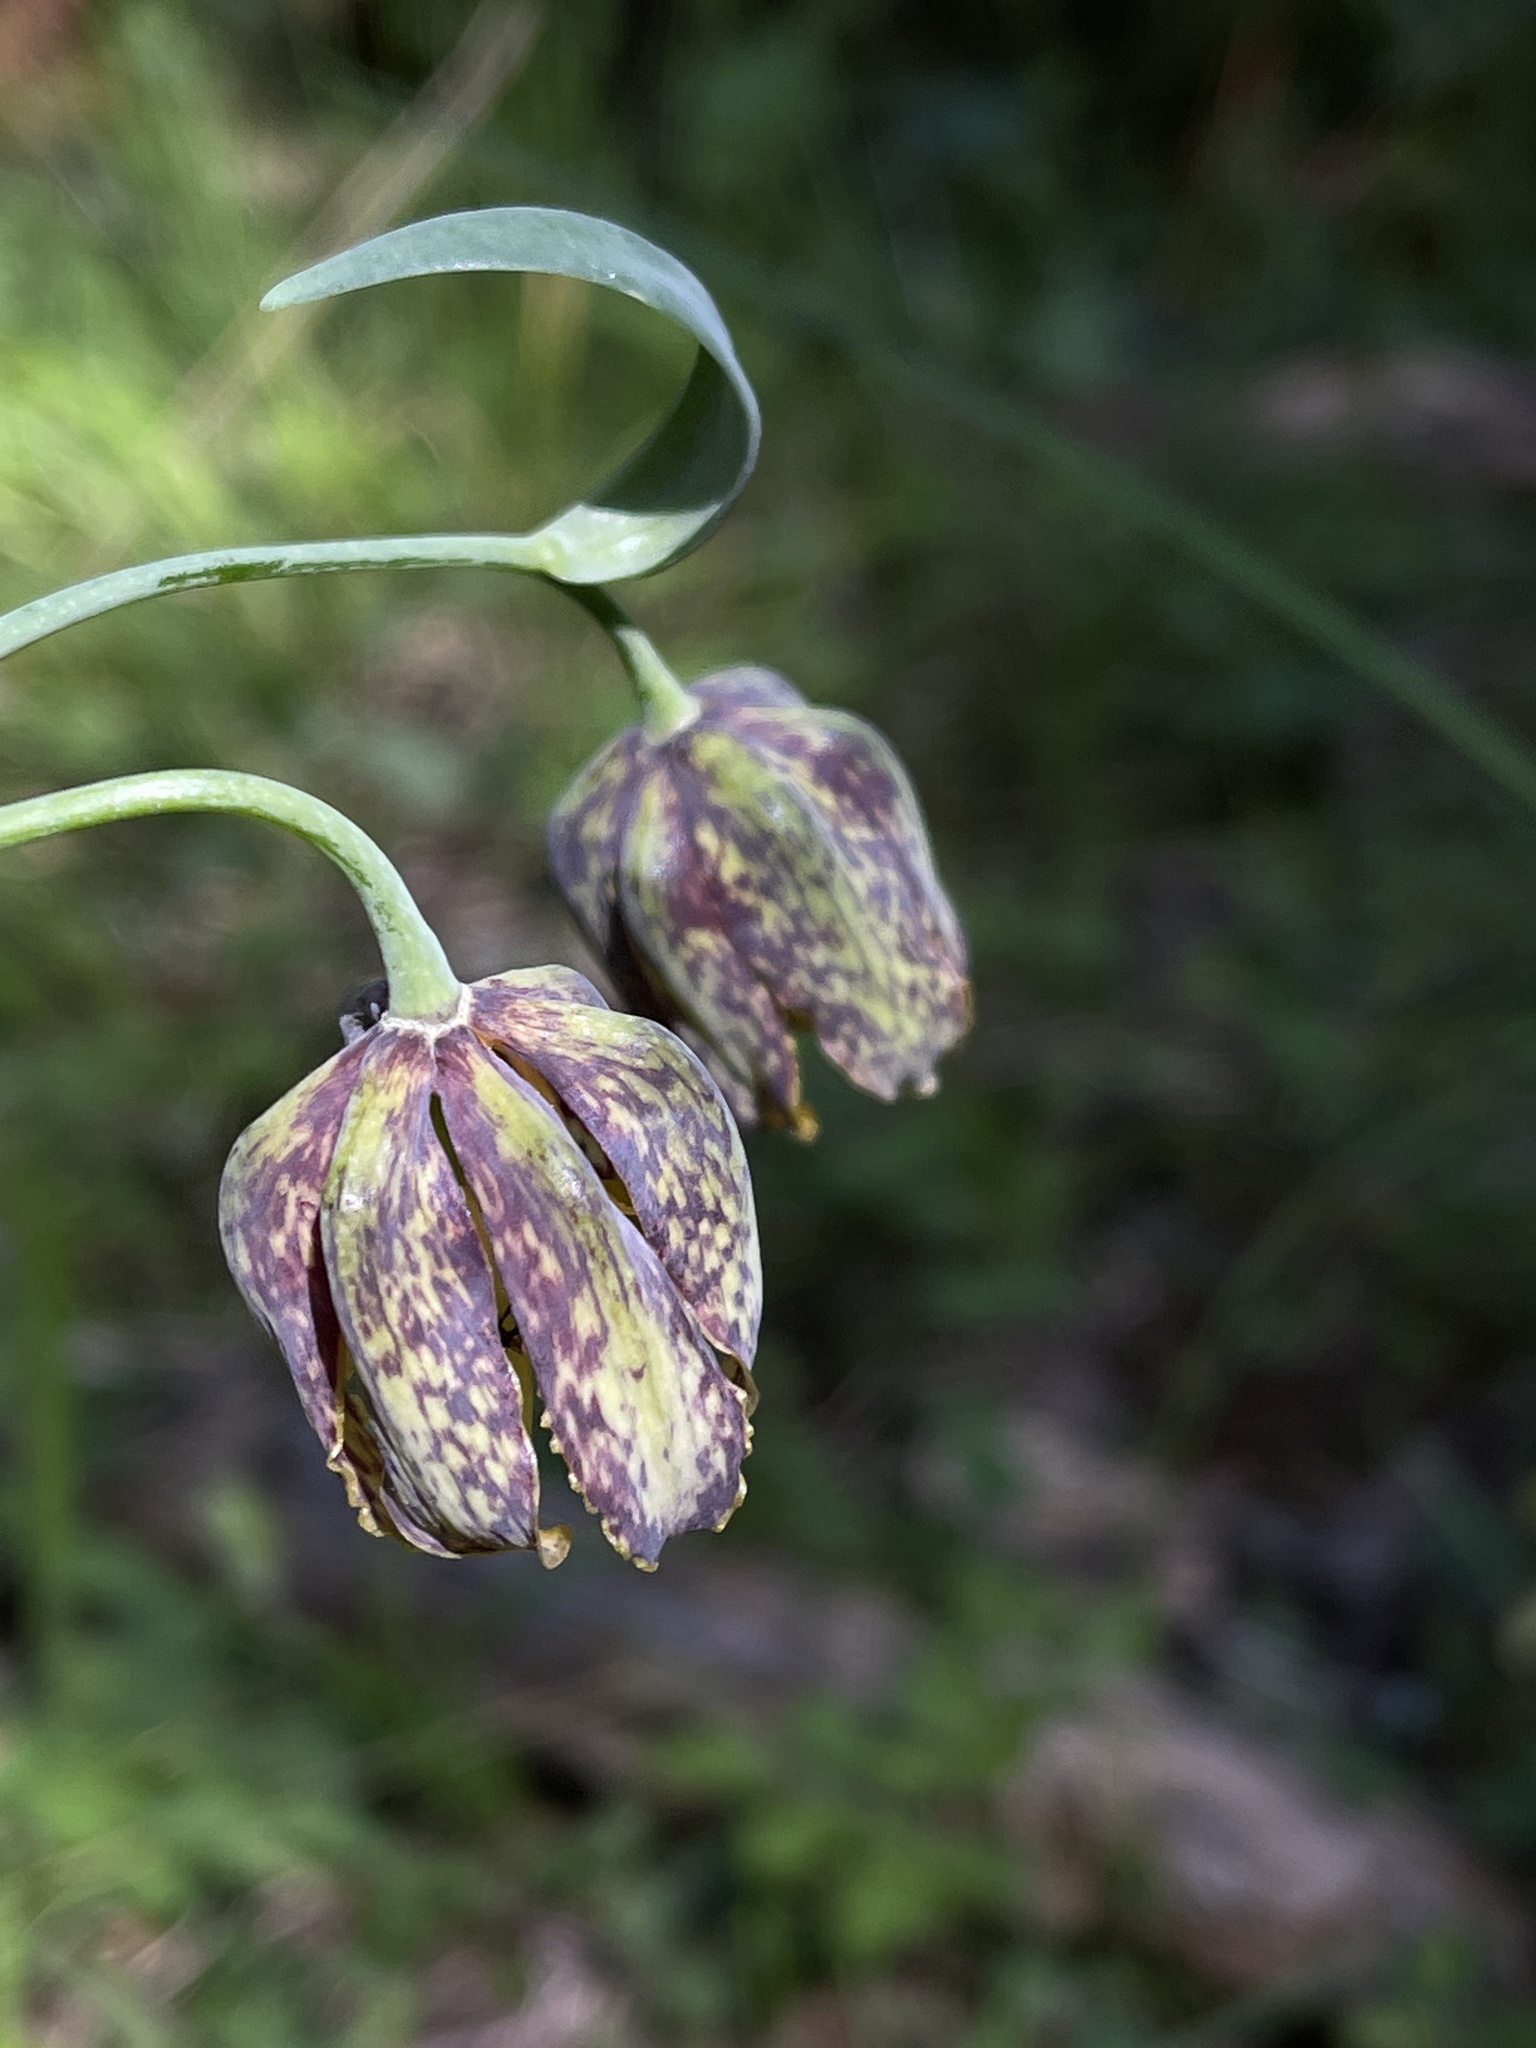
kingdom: Plantae
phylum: Tracheophyta
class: Liliopsida
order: Liliales
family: Liliaceae
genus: Fritillaria
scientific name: Fritillaria affinis
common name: Ojai fritillary
